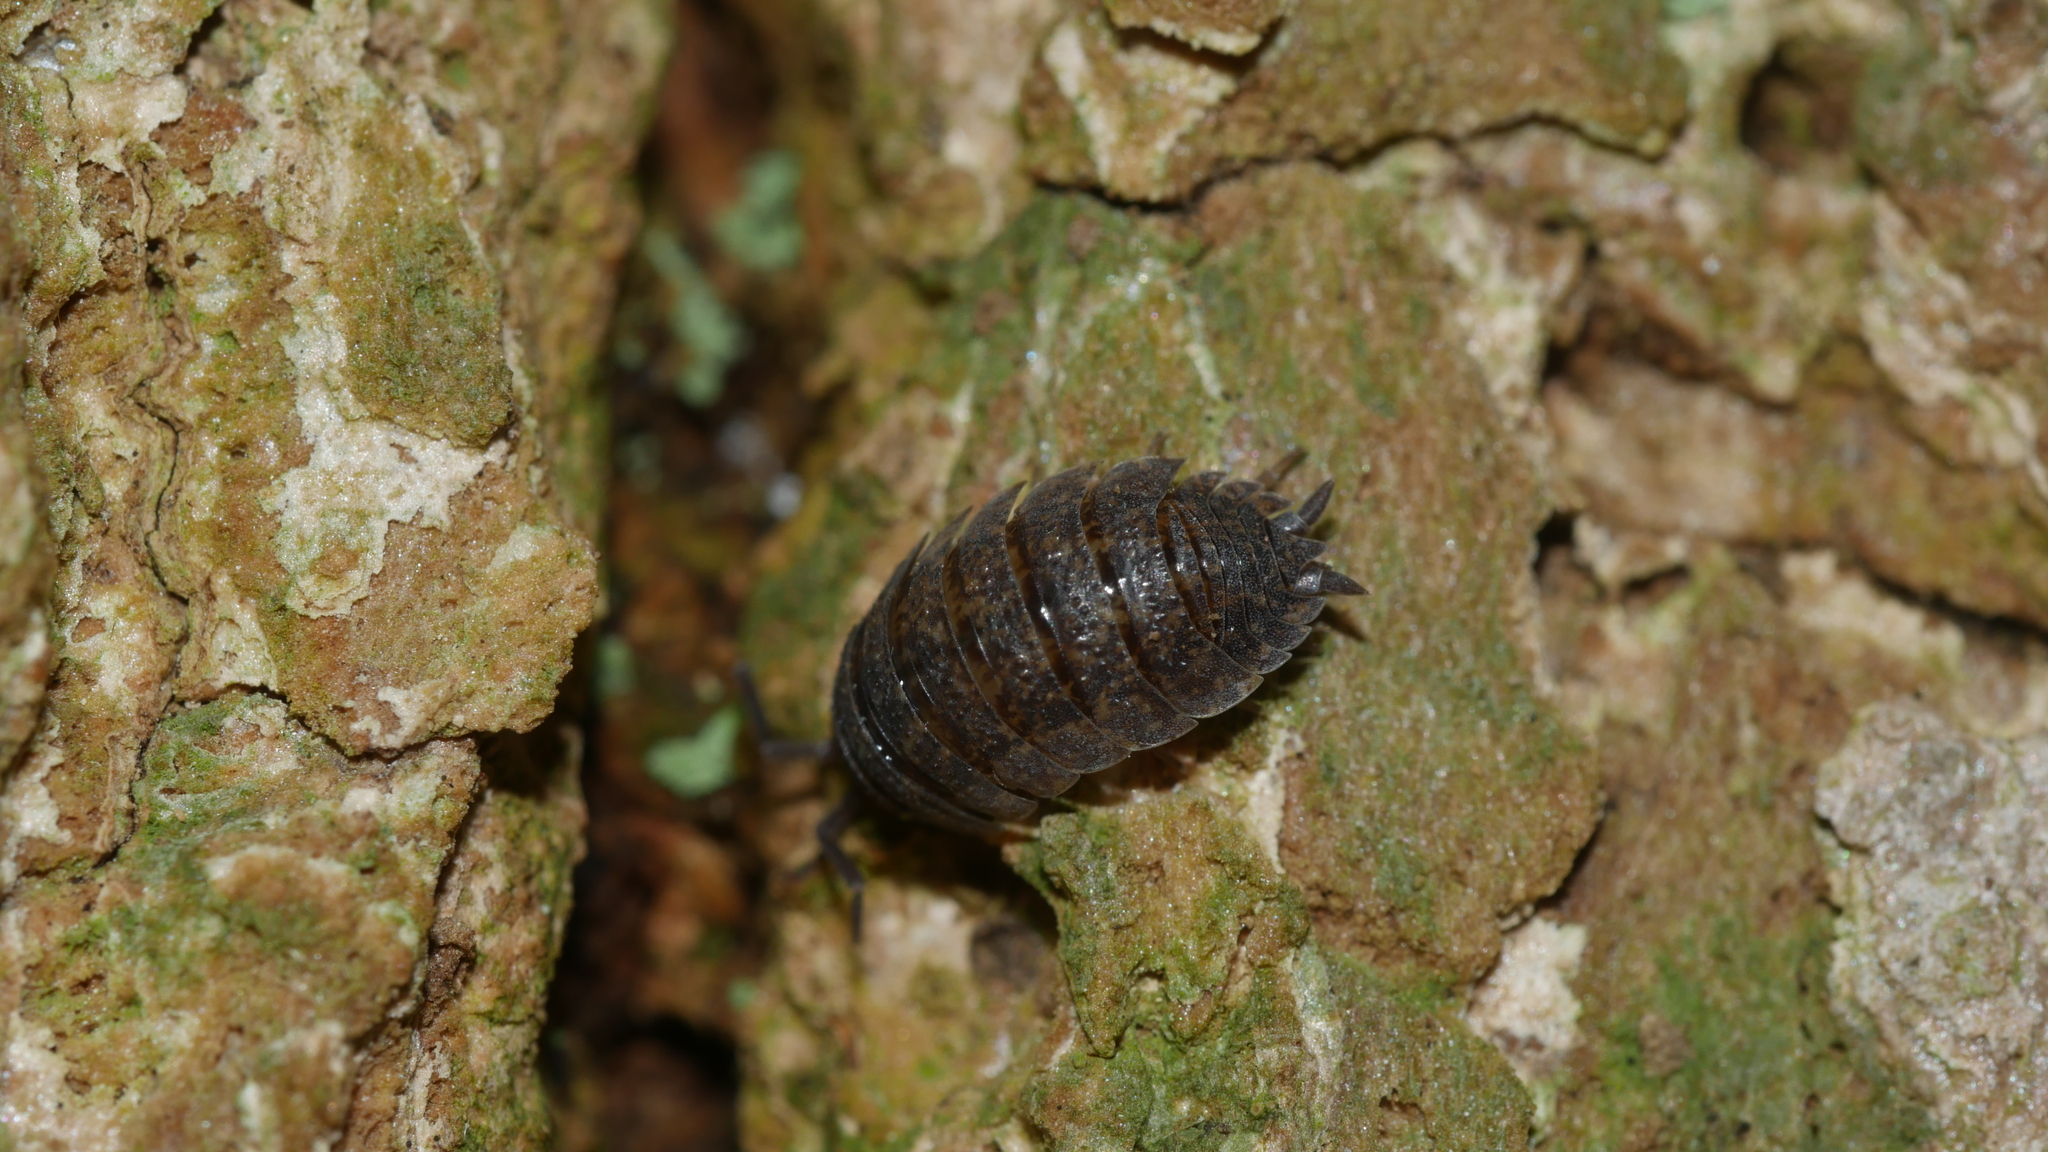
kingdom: Animalia
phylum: Arthropoda
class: Malacostraca
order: Isopoda
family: Porcellionidae
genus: Porcellio
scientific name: Porcellio scaber
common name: Common rough woodlouse
